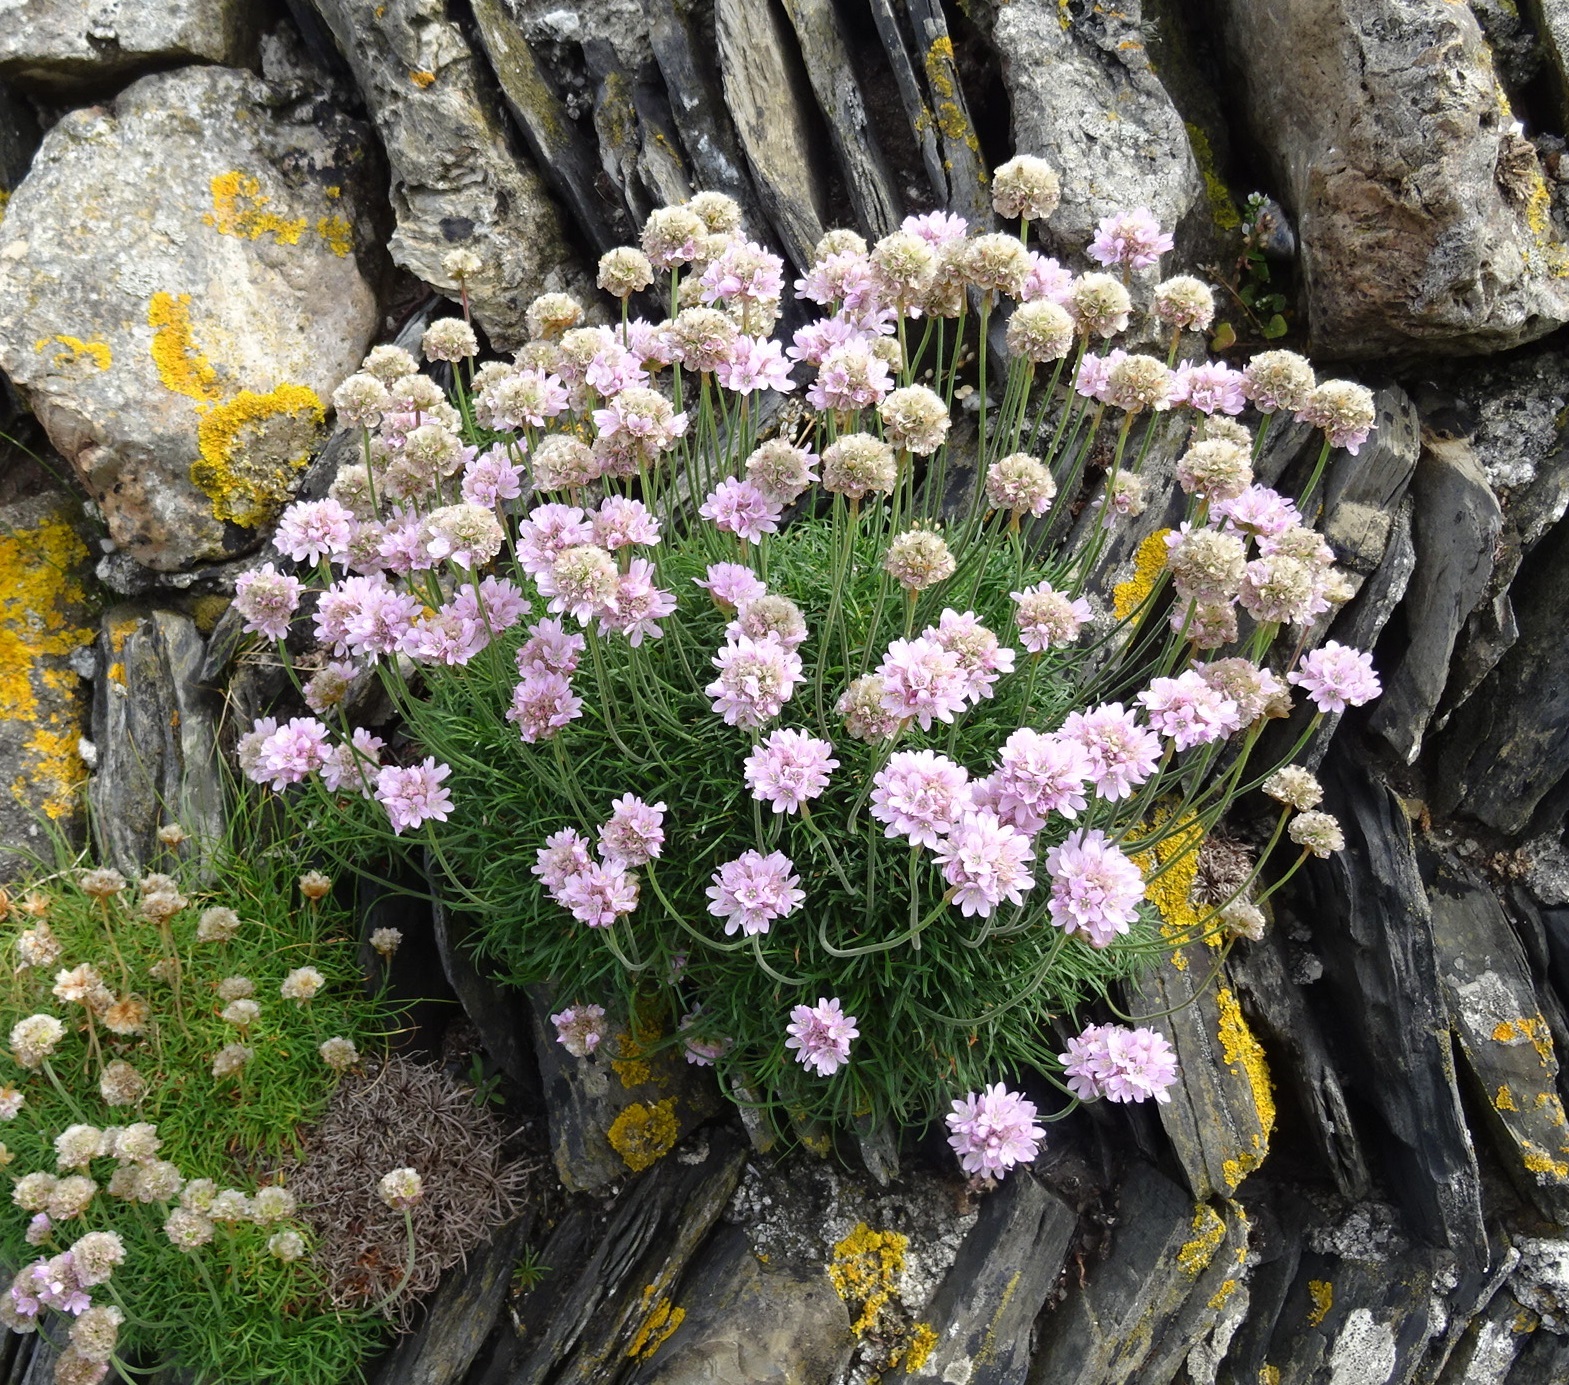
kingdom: Plantae
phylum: Tracheophyta
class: Magnoliopsida
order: Caryophyllales
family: Plumbaginaceae
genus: Armeria
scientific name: Armeria maritima
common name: Thrift
